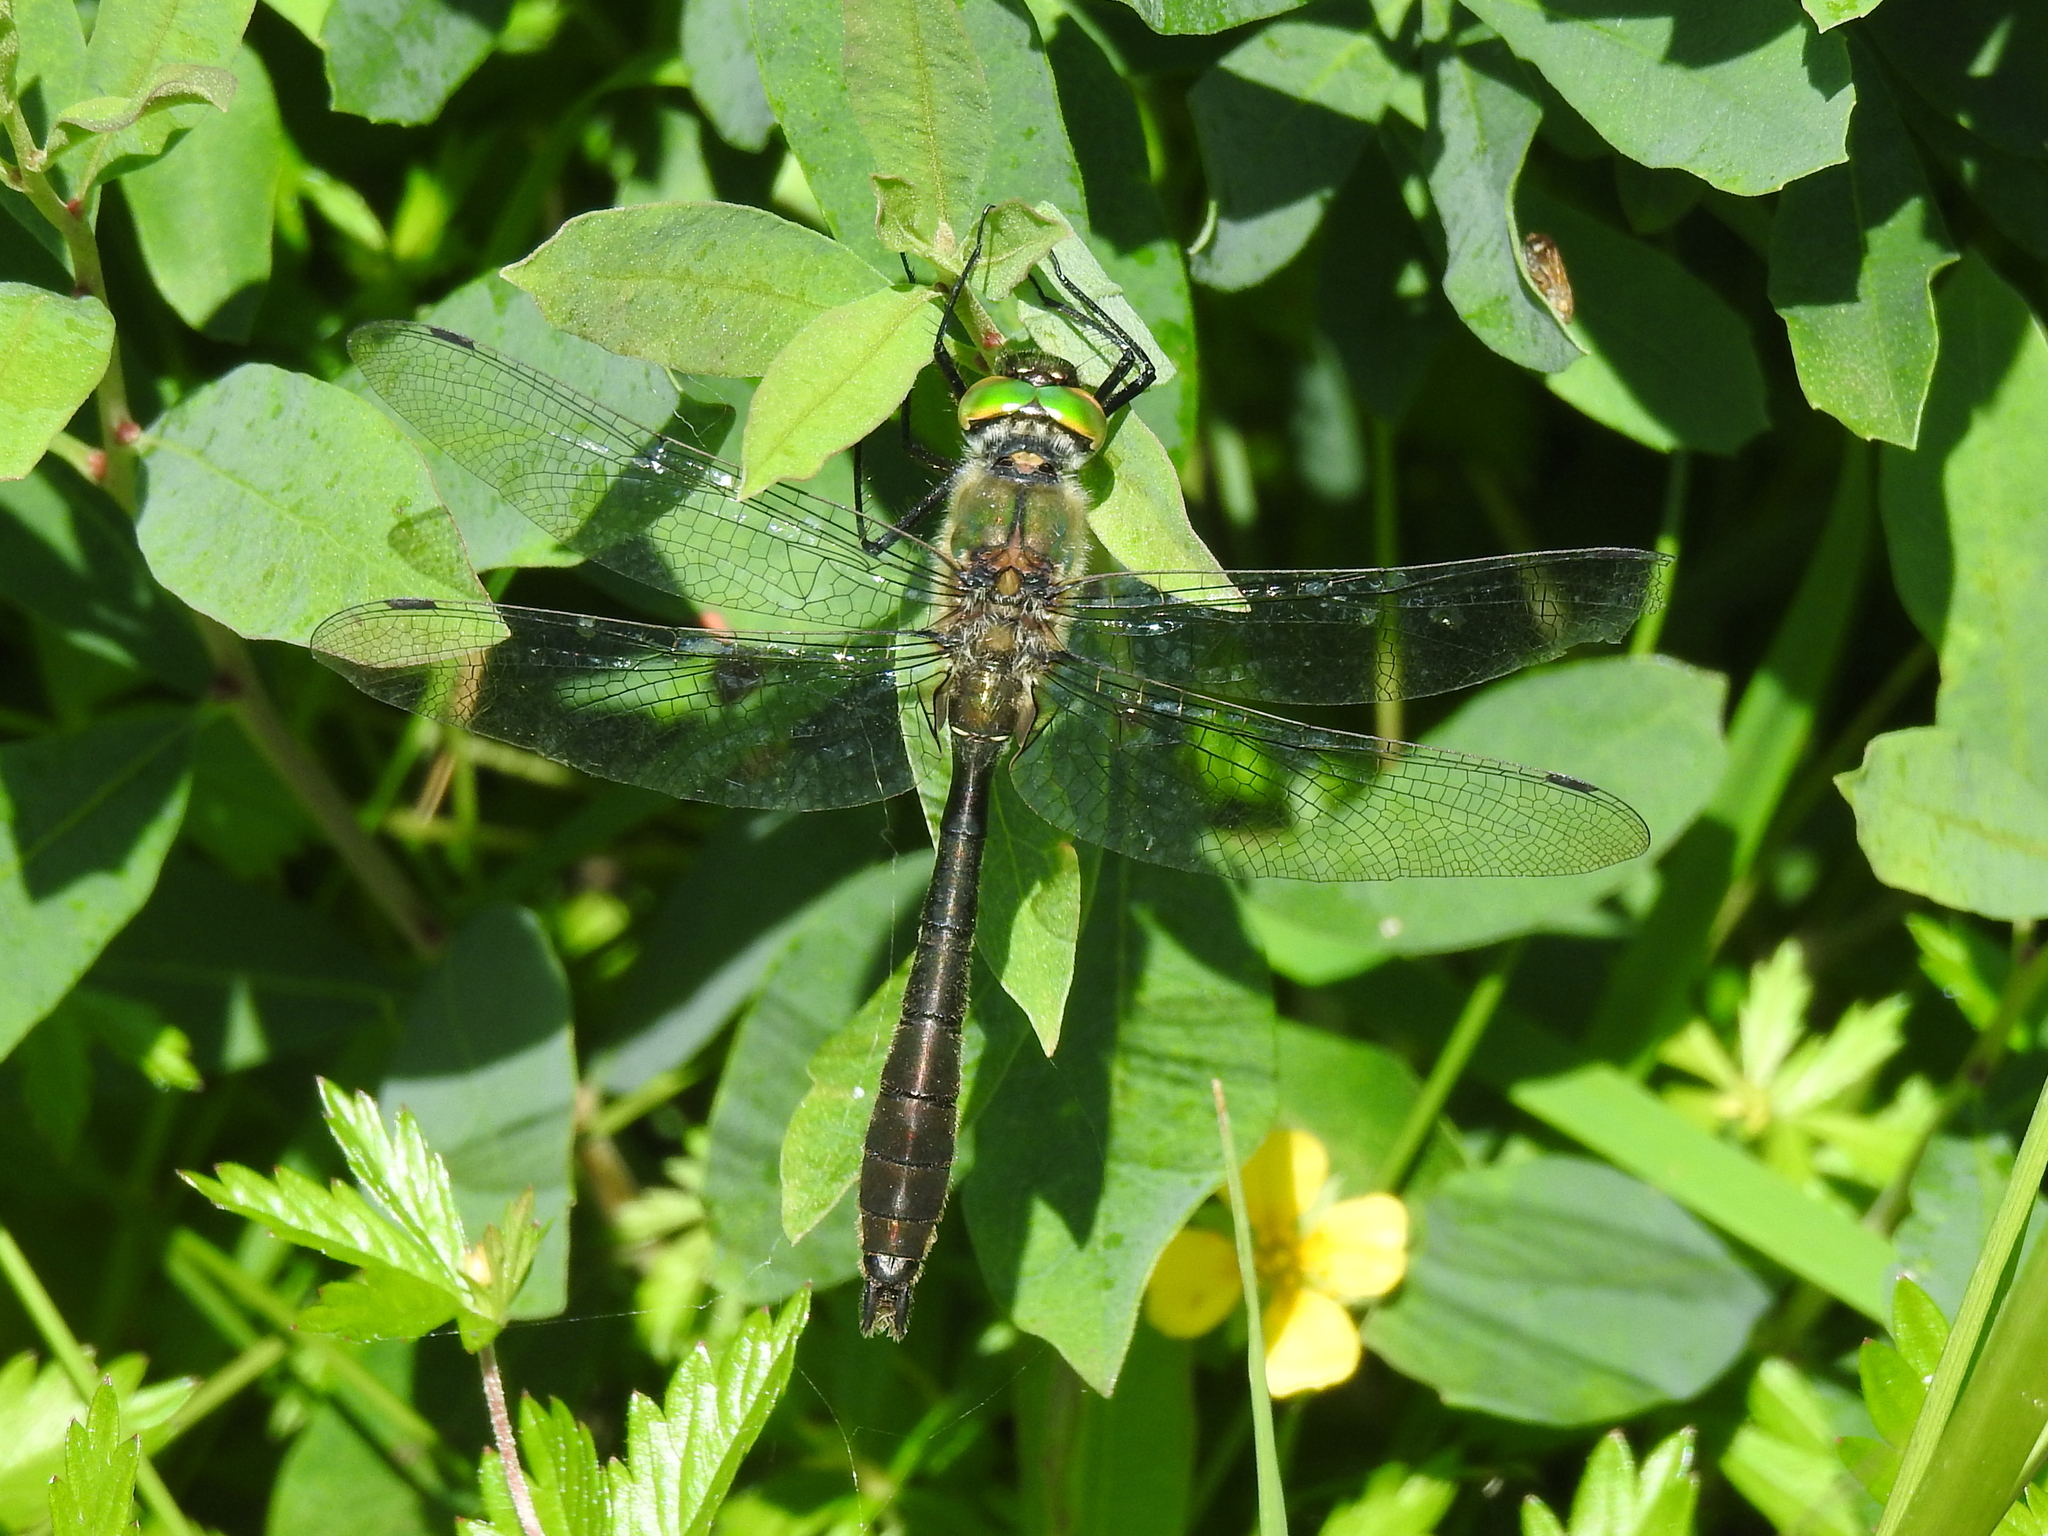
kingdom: Animalia
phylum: Arthropoda
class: Insecta
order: Odonata
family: Corduliidae
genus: Cordulia
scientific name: Cordulia aenea
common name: Downy emerald
